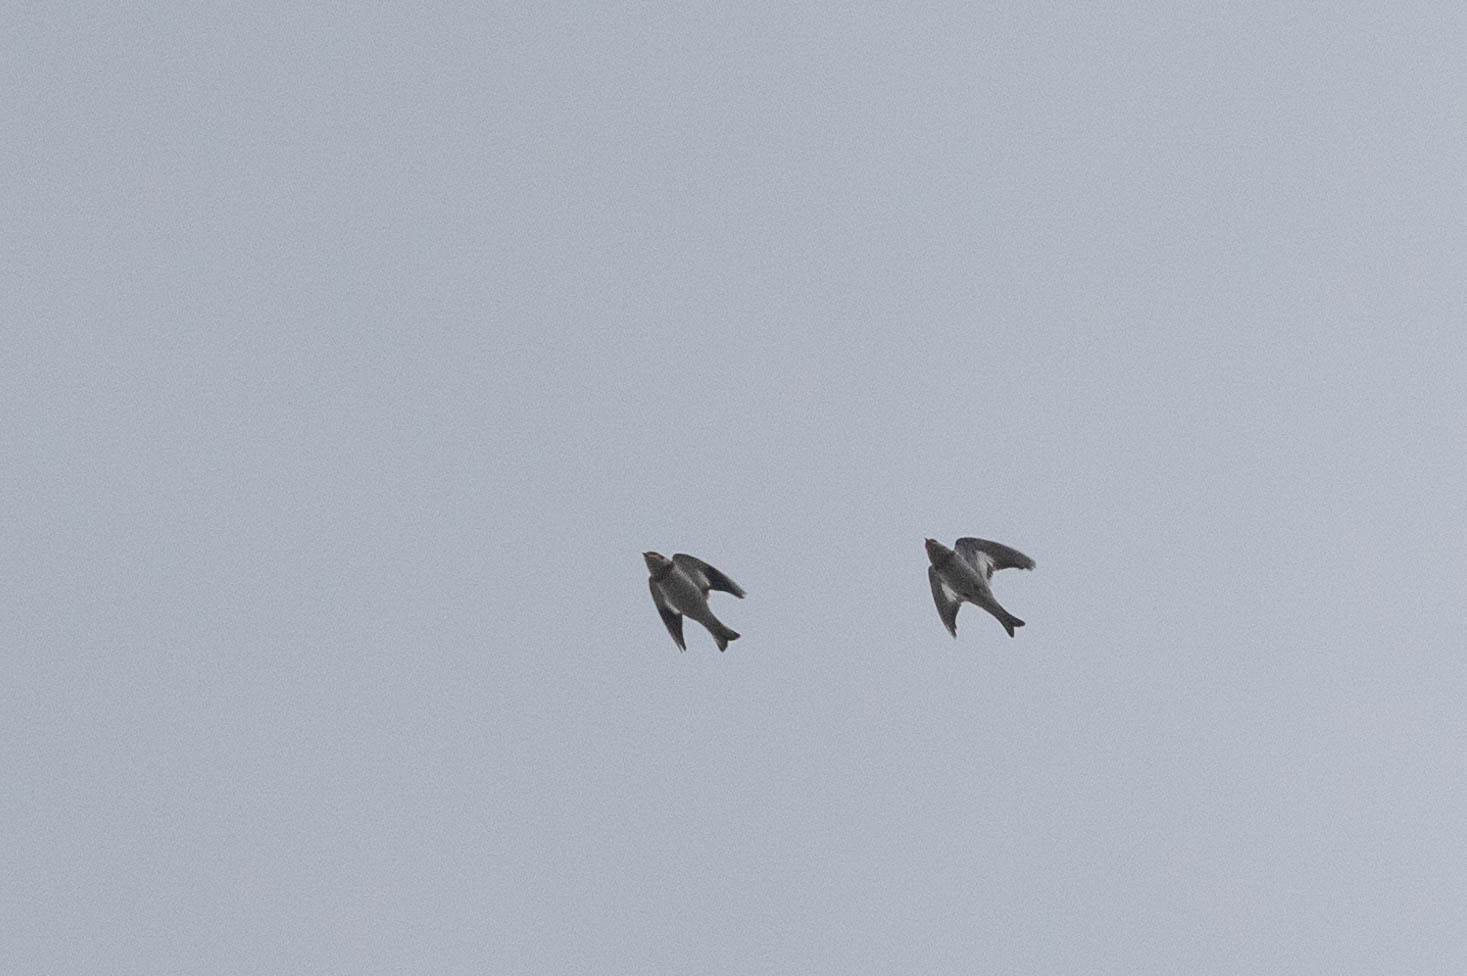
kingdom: Animalia
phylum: Chordata
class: Aves
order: Passeriformes
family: Calcariidae
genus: Plectrophenax
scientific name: Plectrophenax nivalis
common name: Snow bunting
